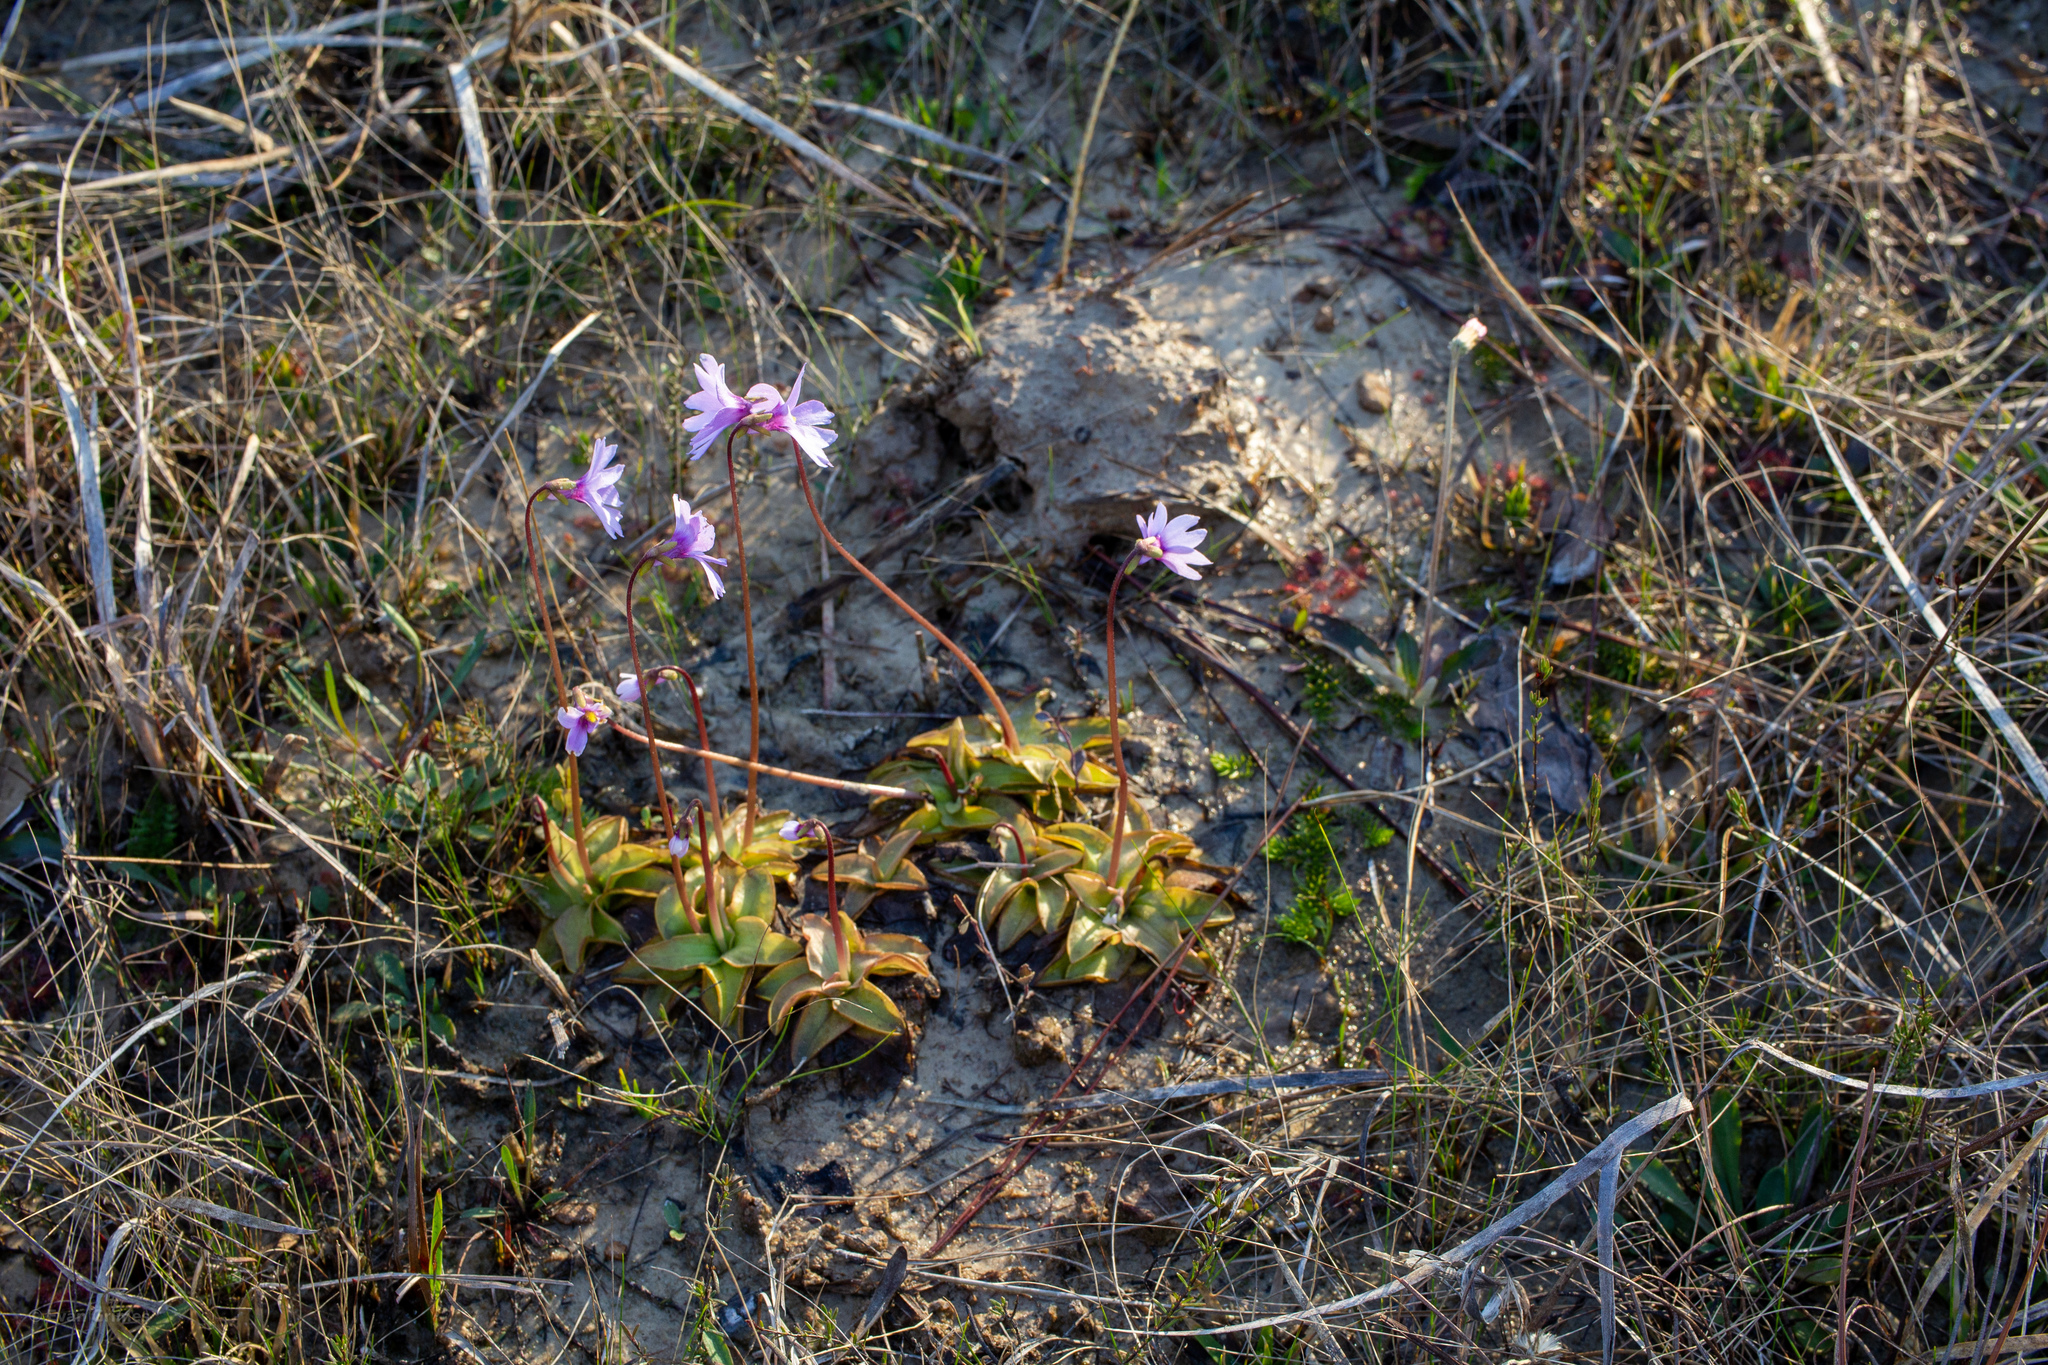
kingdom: Plantae
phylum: Tracheophyta
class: Magnoliopsida
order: Lamiales
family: Lentibulariaceae
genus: Pinguicula
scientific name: Pinguicula planifolia
